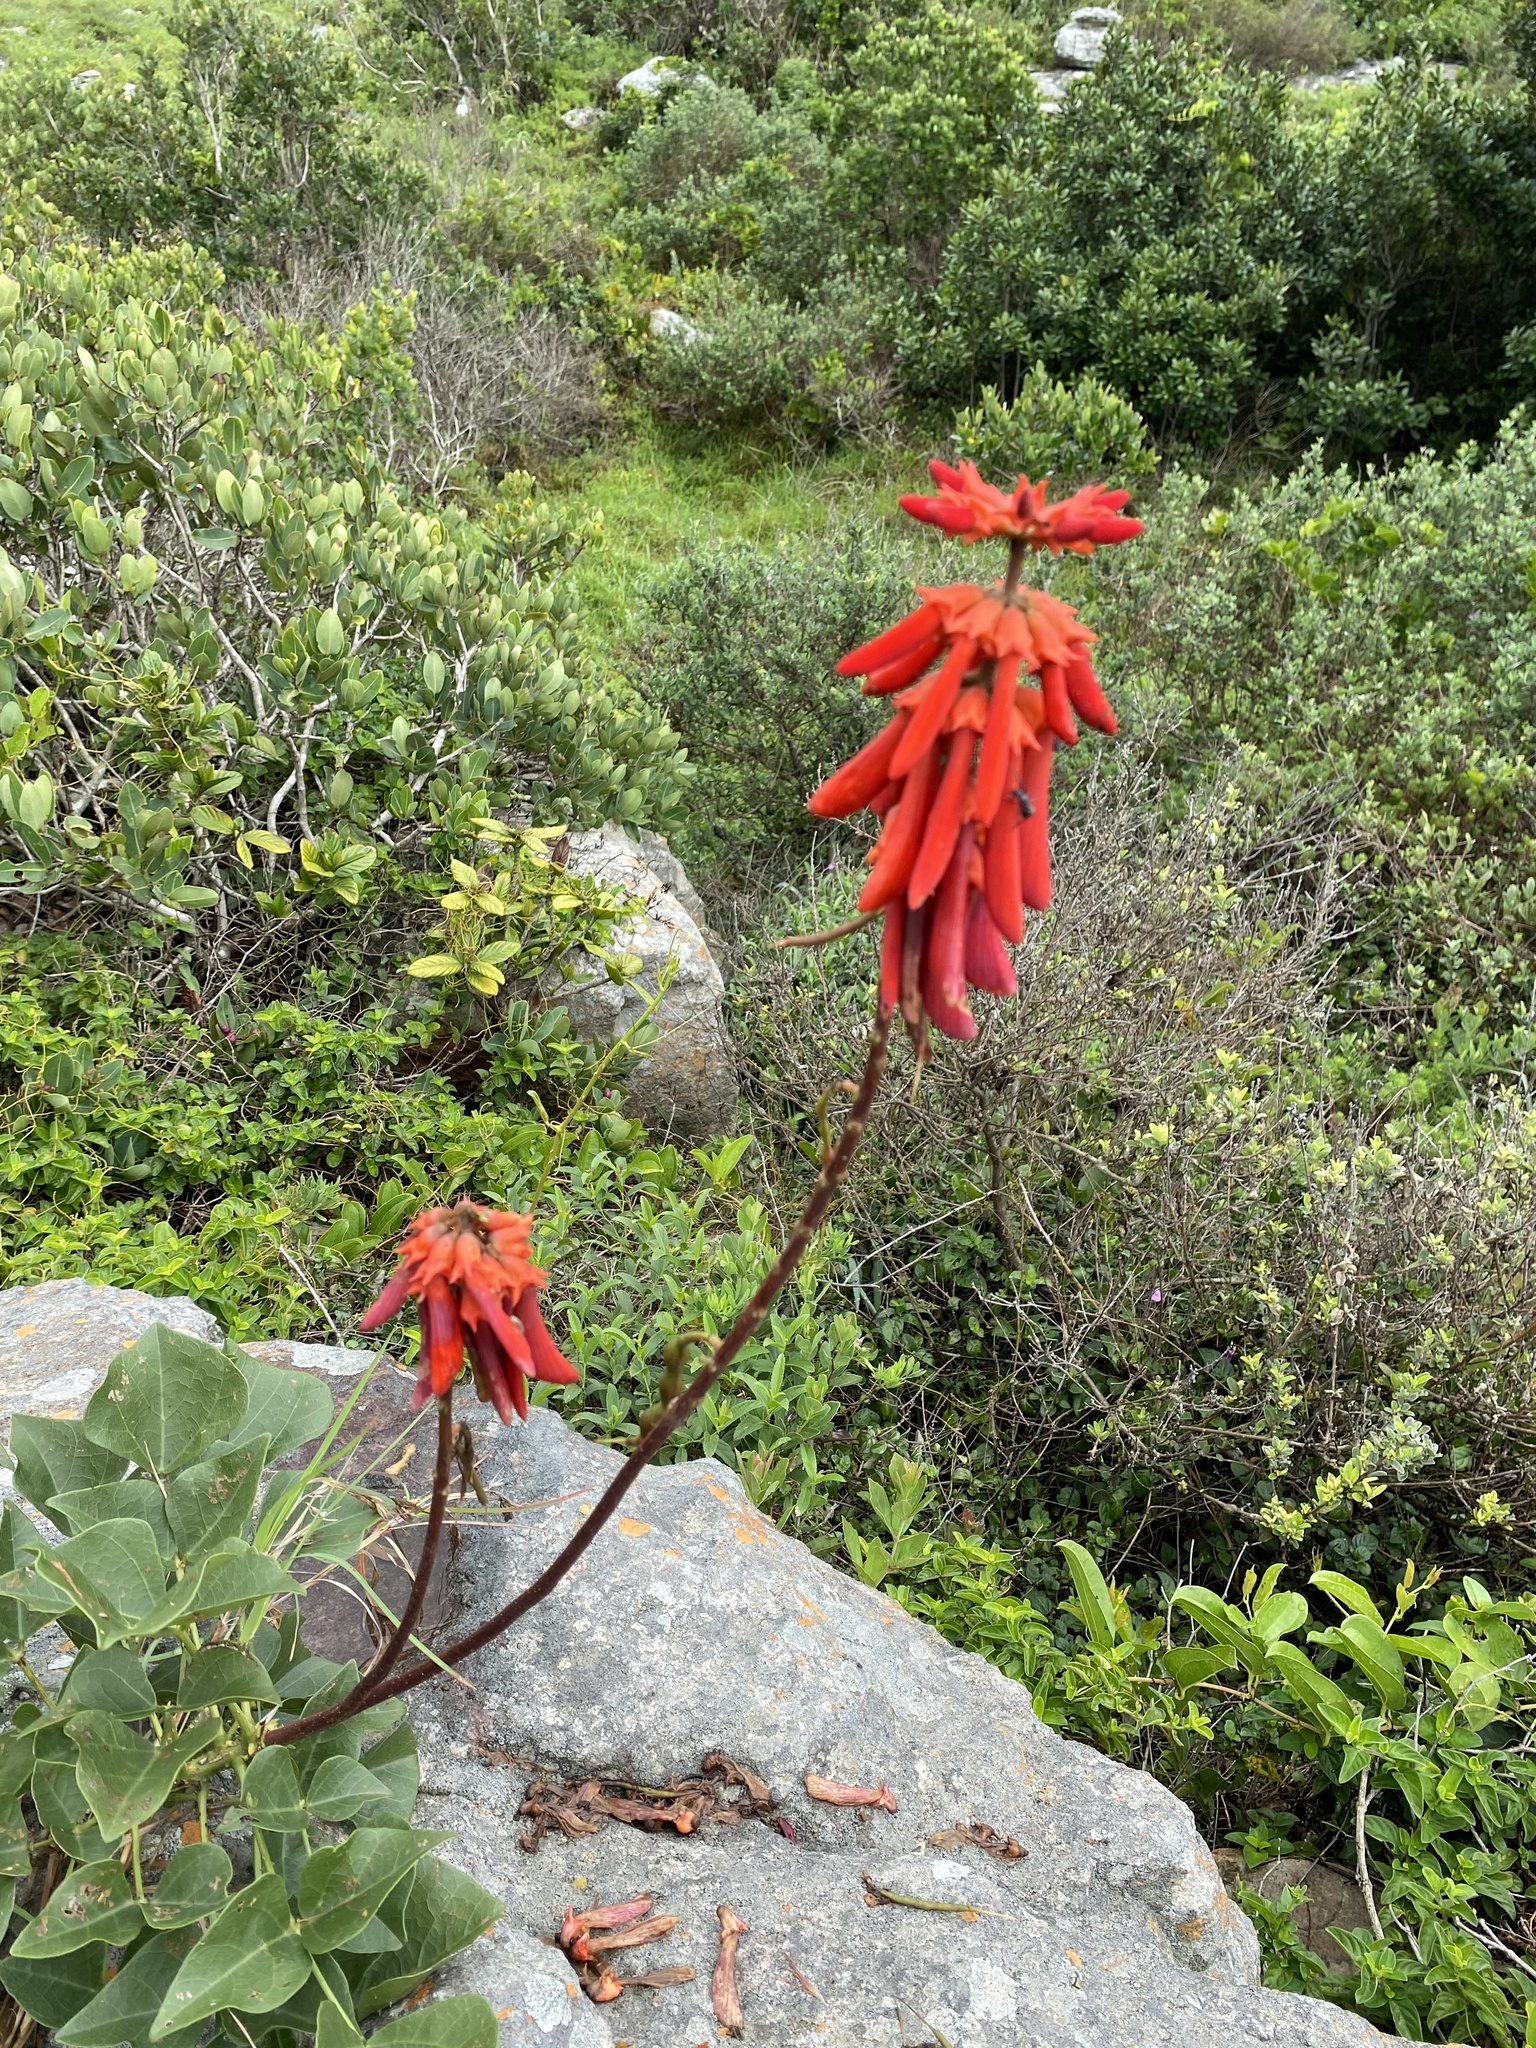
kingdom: Plantae
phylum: Tracheophyta
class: Magnoliopsida
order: Fabales
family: Fabaceae
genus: Erythrina
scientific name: Erythrina humeana
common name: Dwarf coral tree
